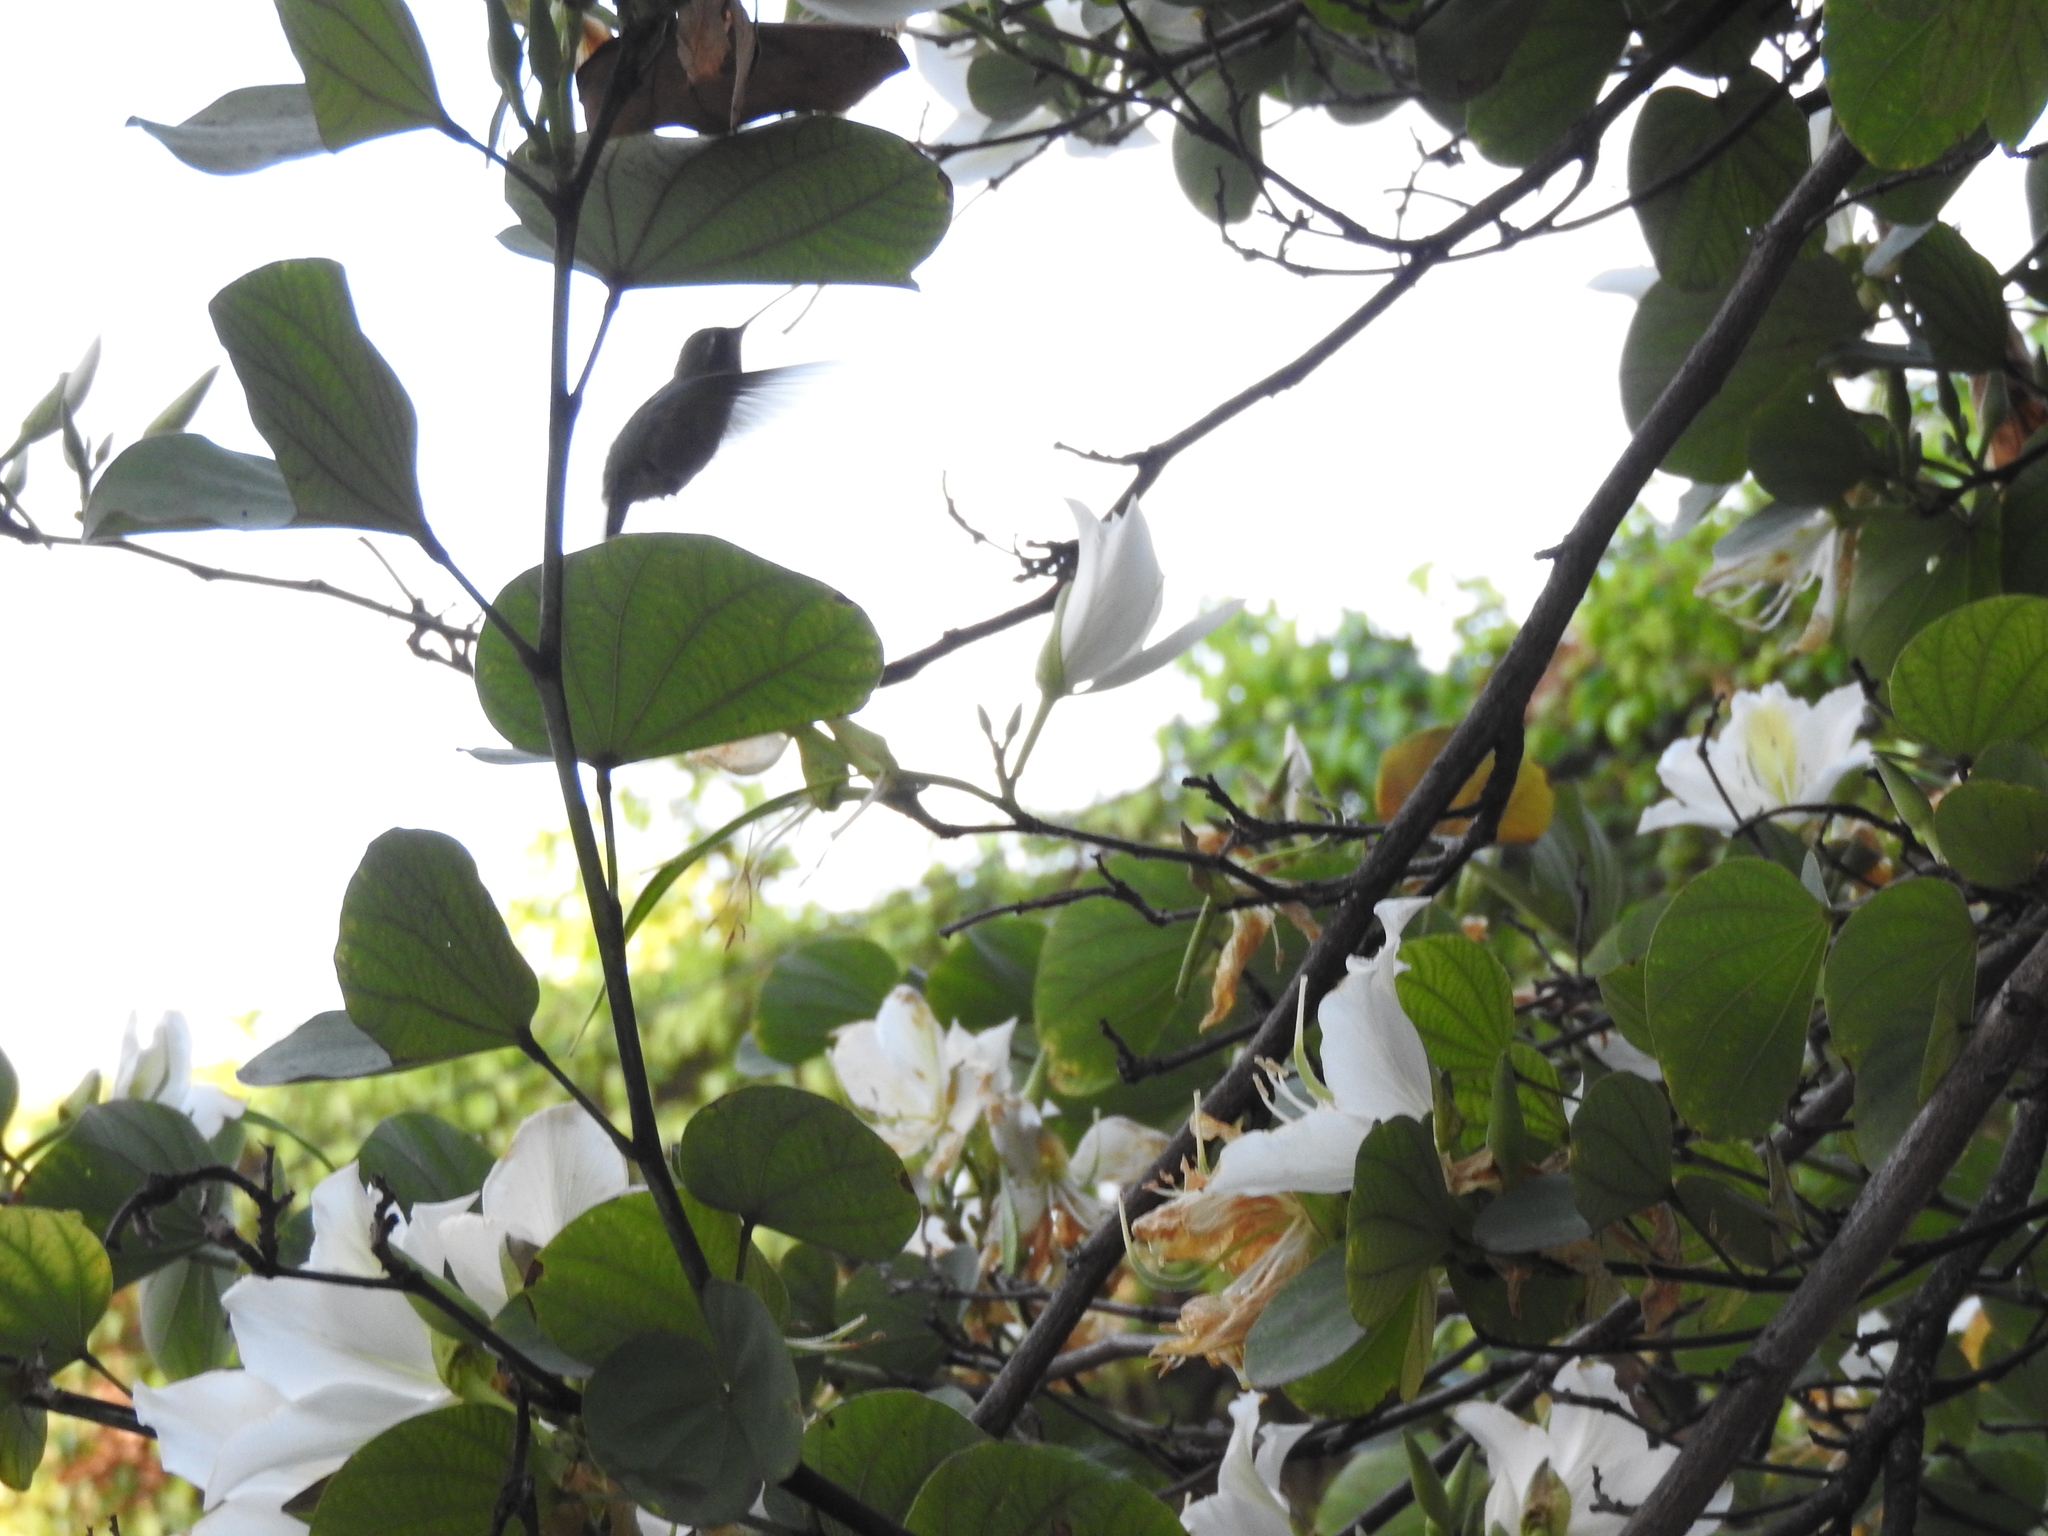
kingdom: Animalia
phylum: Chordata
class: Aves
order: Apodiformes
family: Trochilidae
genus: Cynanthus
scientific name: Cynanthus latirostris
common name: Broad-billed hummingbird
